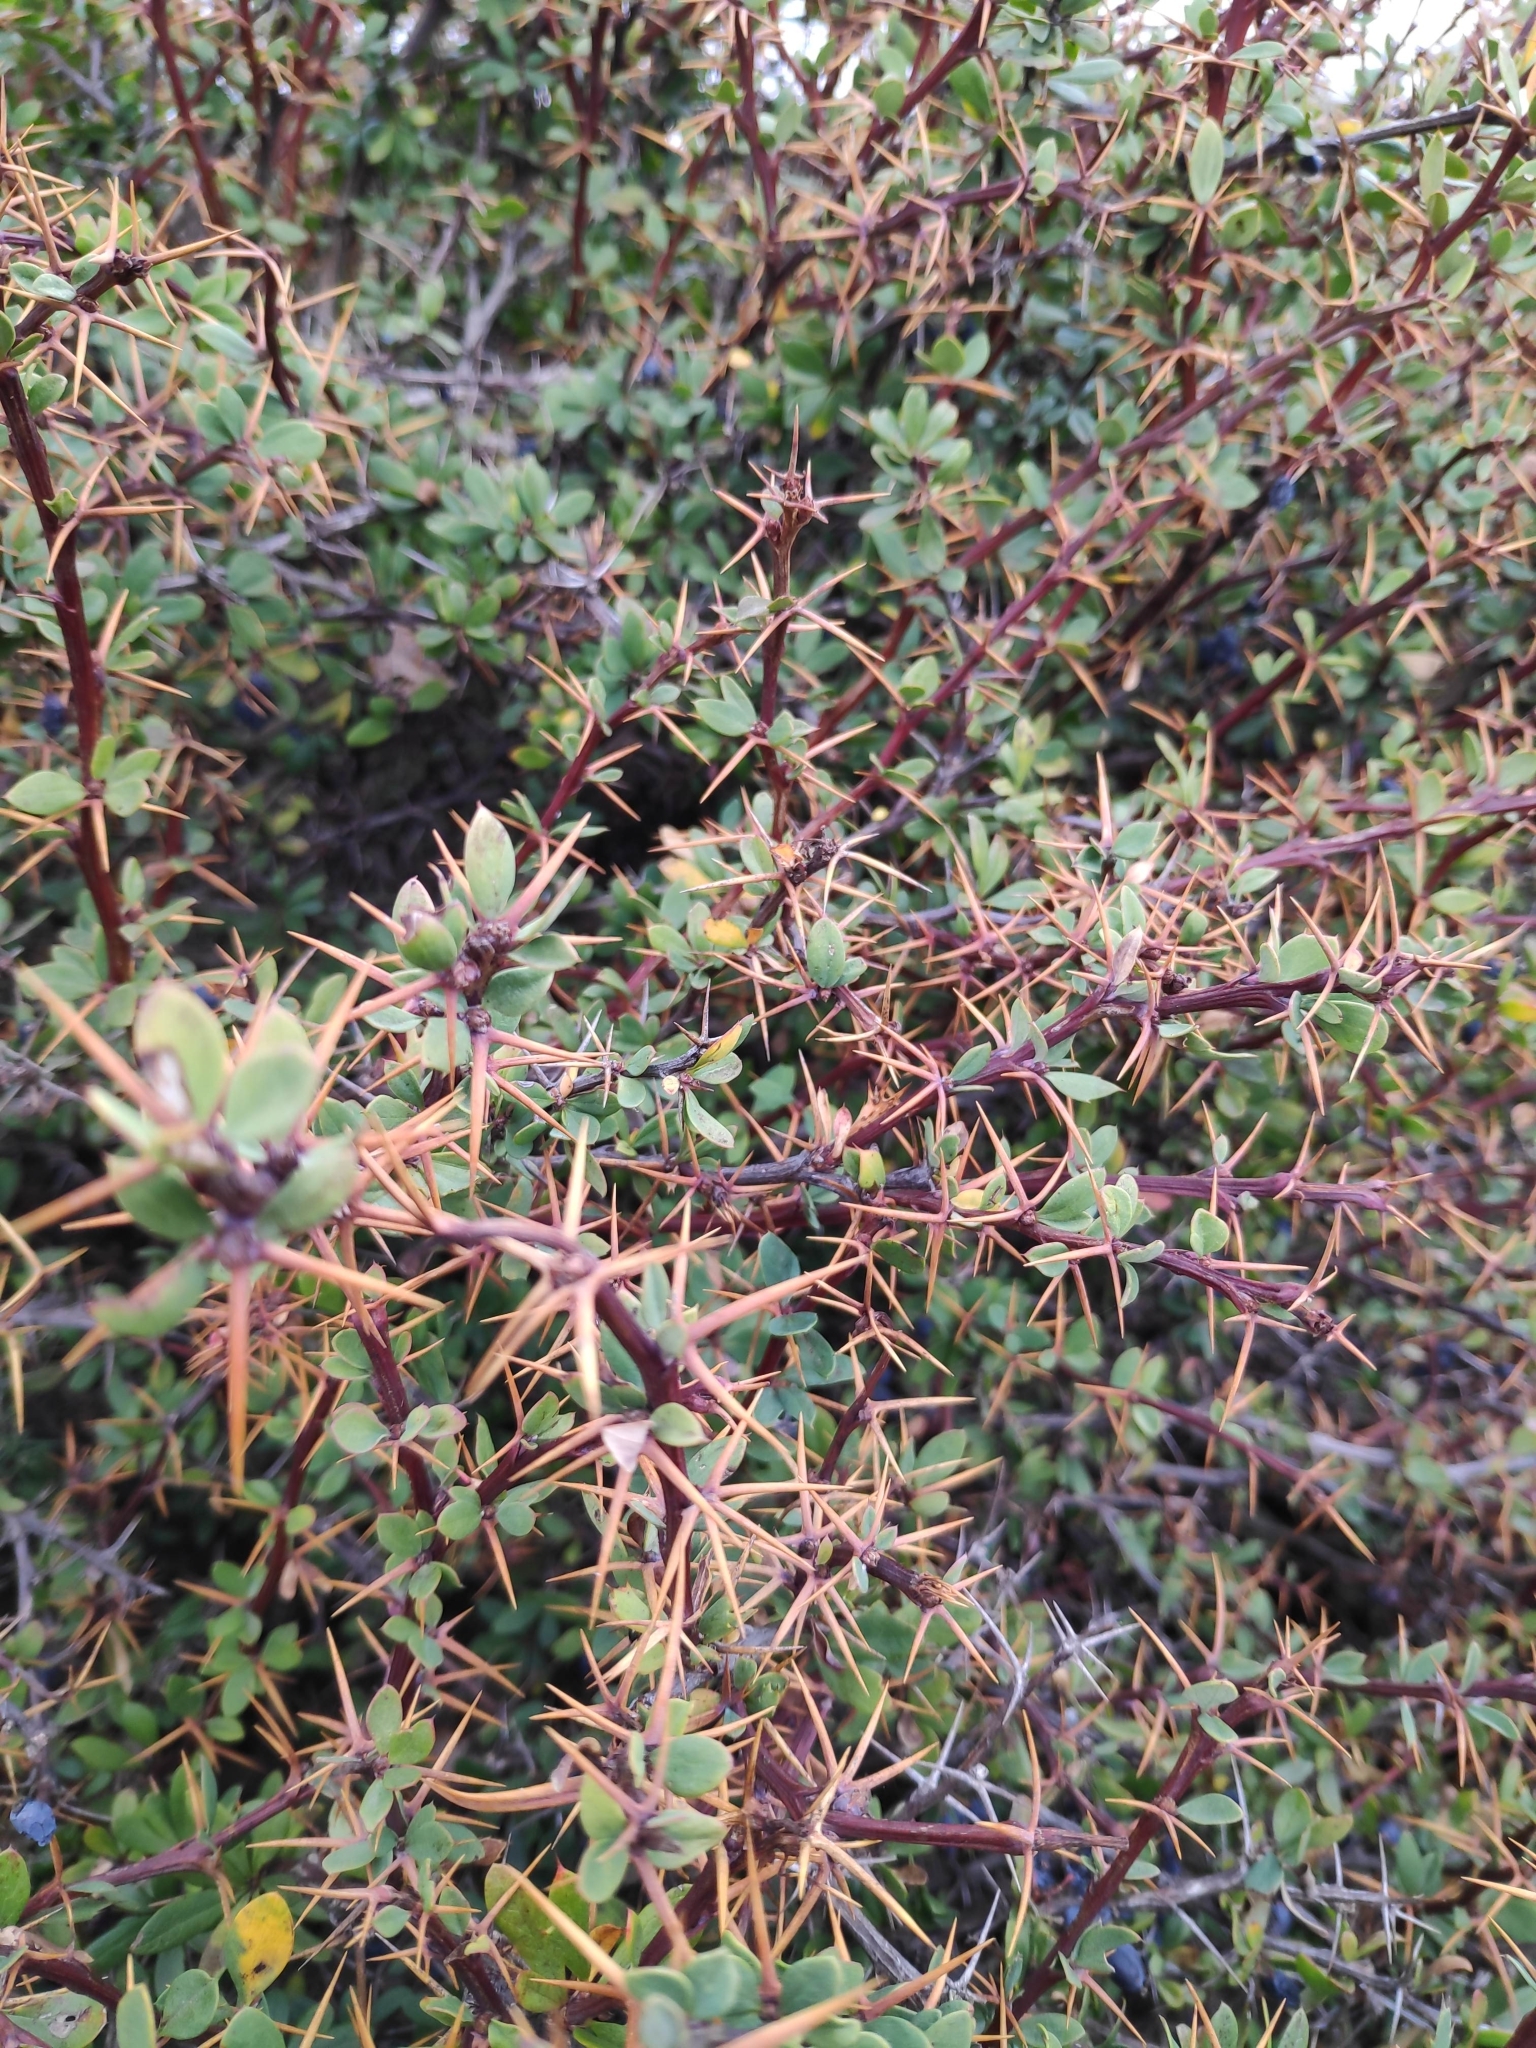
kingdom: Plantae
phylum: Tracheophyta
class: Magnoliopsida
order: Ranunculales
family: Berberidaceae
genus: Berberis
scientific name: Berberis cretica
